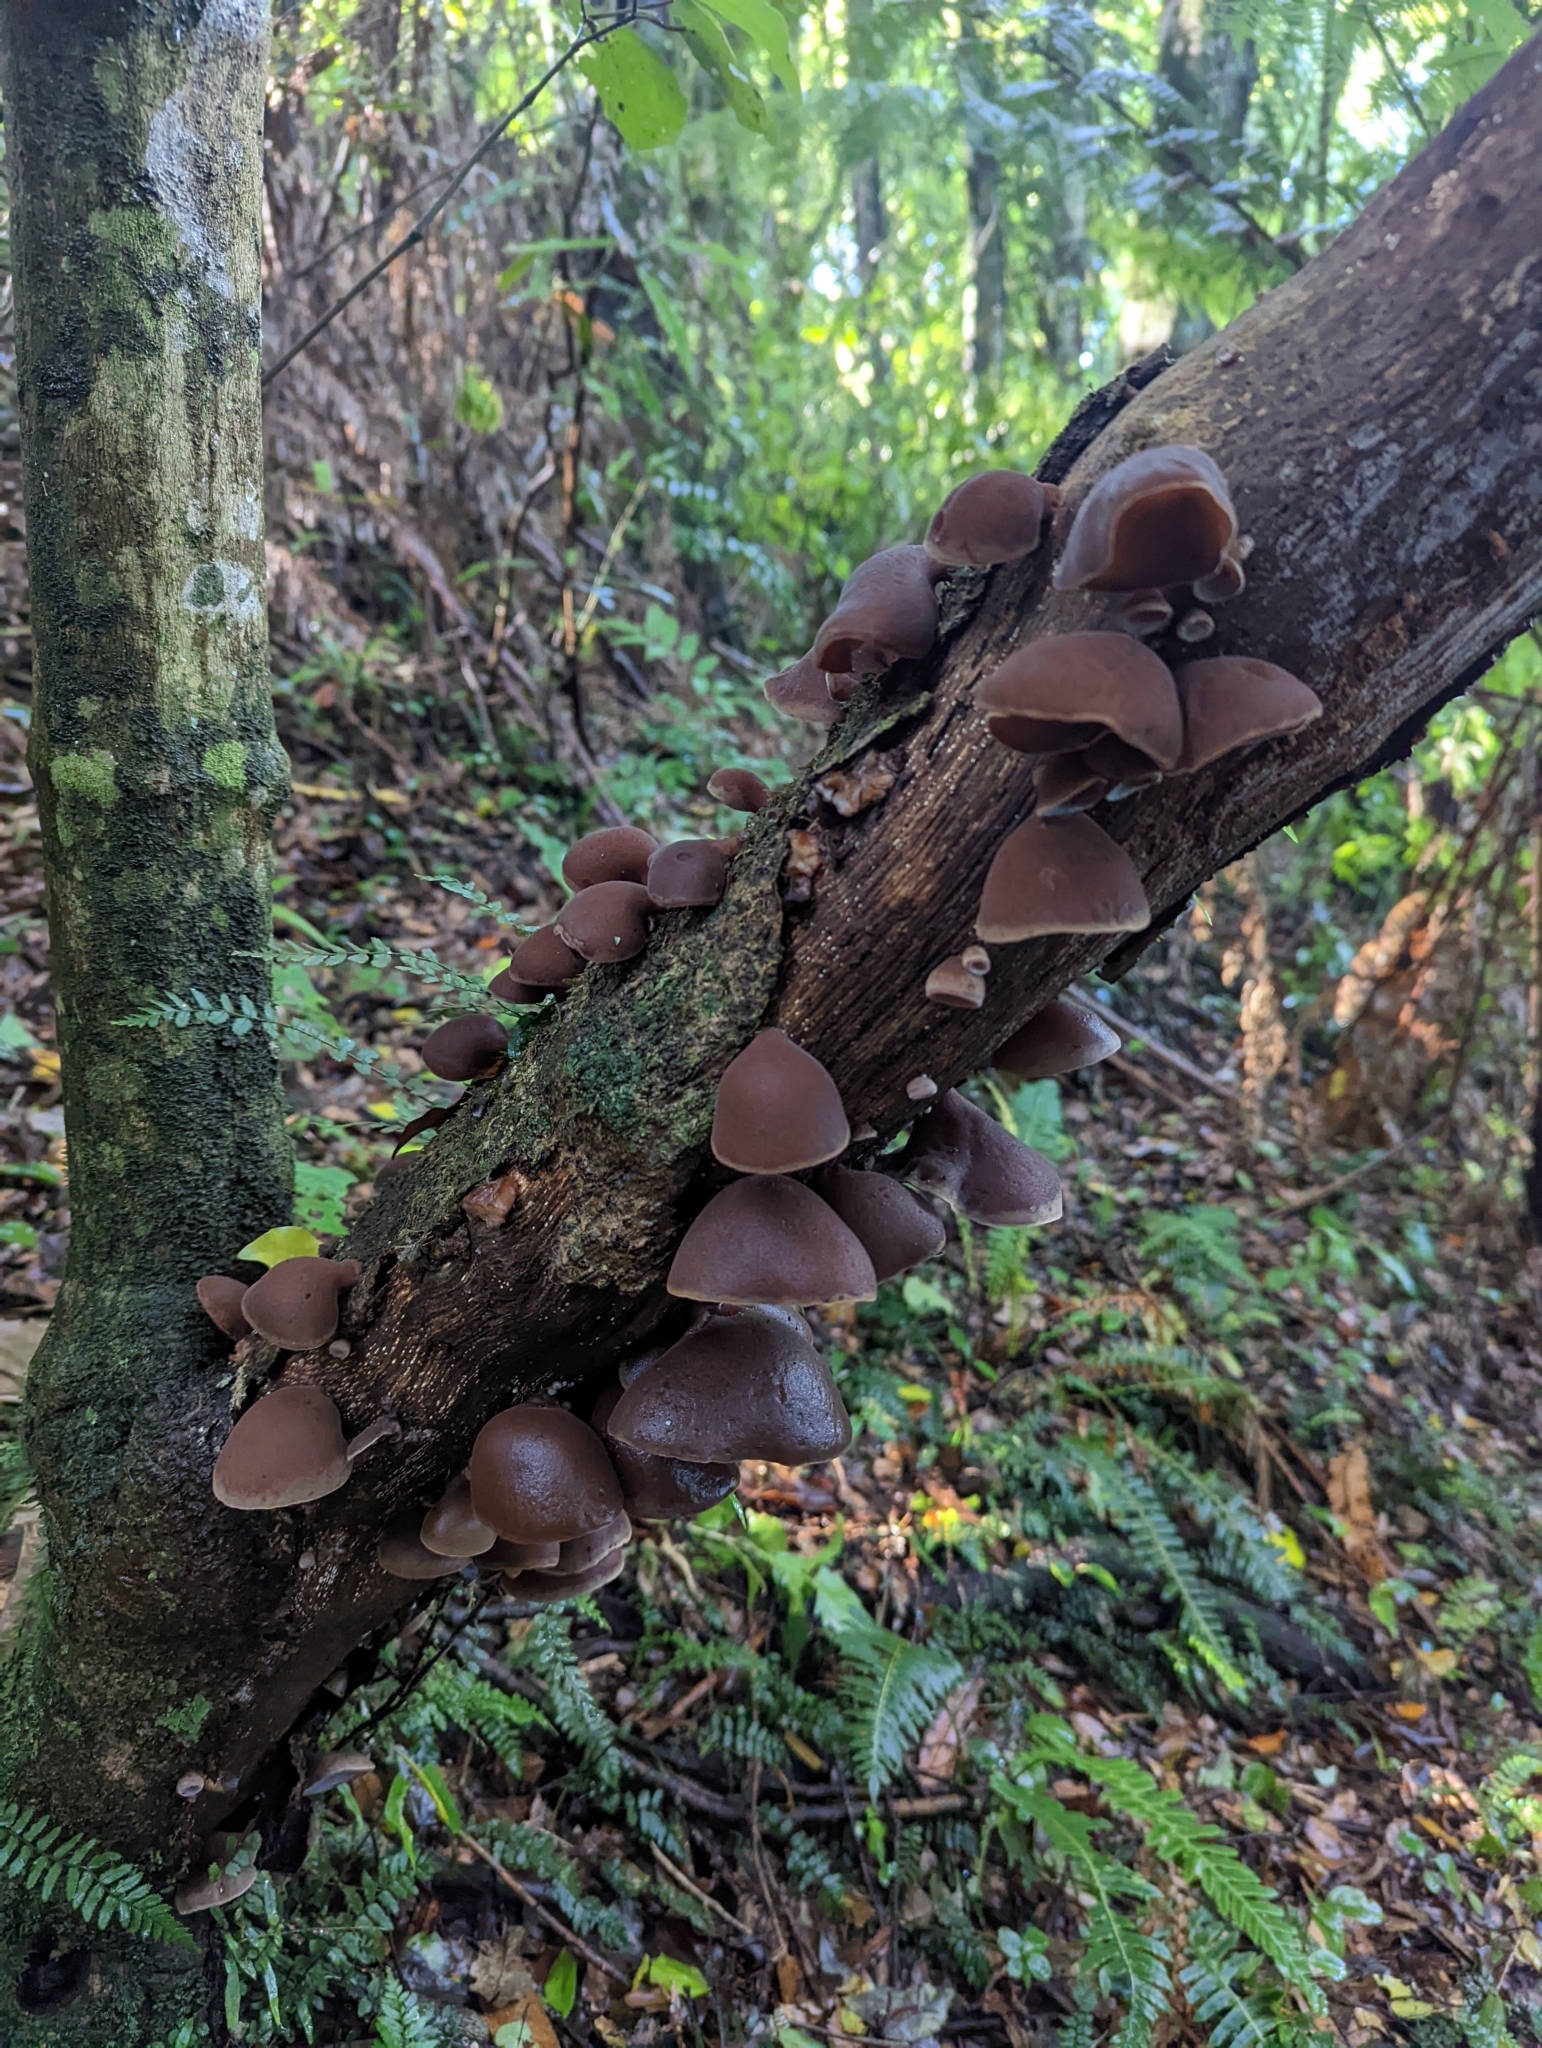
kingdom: Fungi
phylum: Basidiomycota
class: Agaricomycetes
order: Auriculariales
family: Auriculariaceae
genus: Auricularia
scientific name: Auricularia cornea
